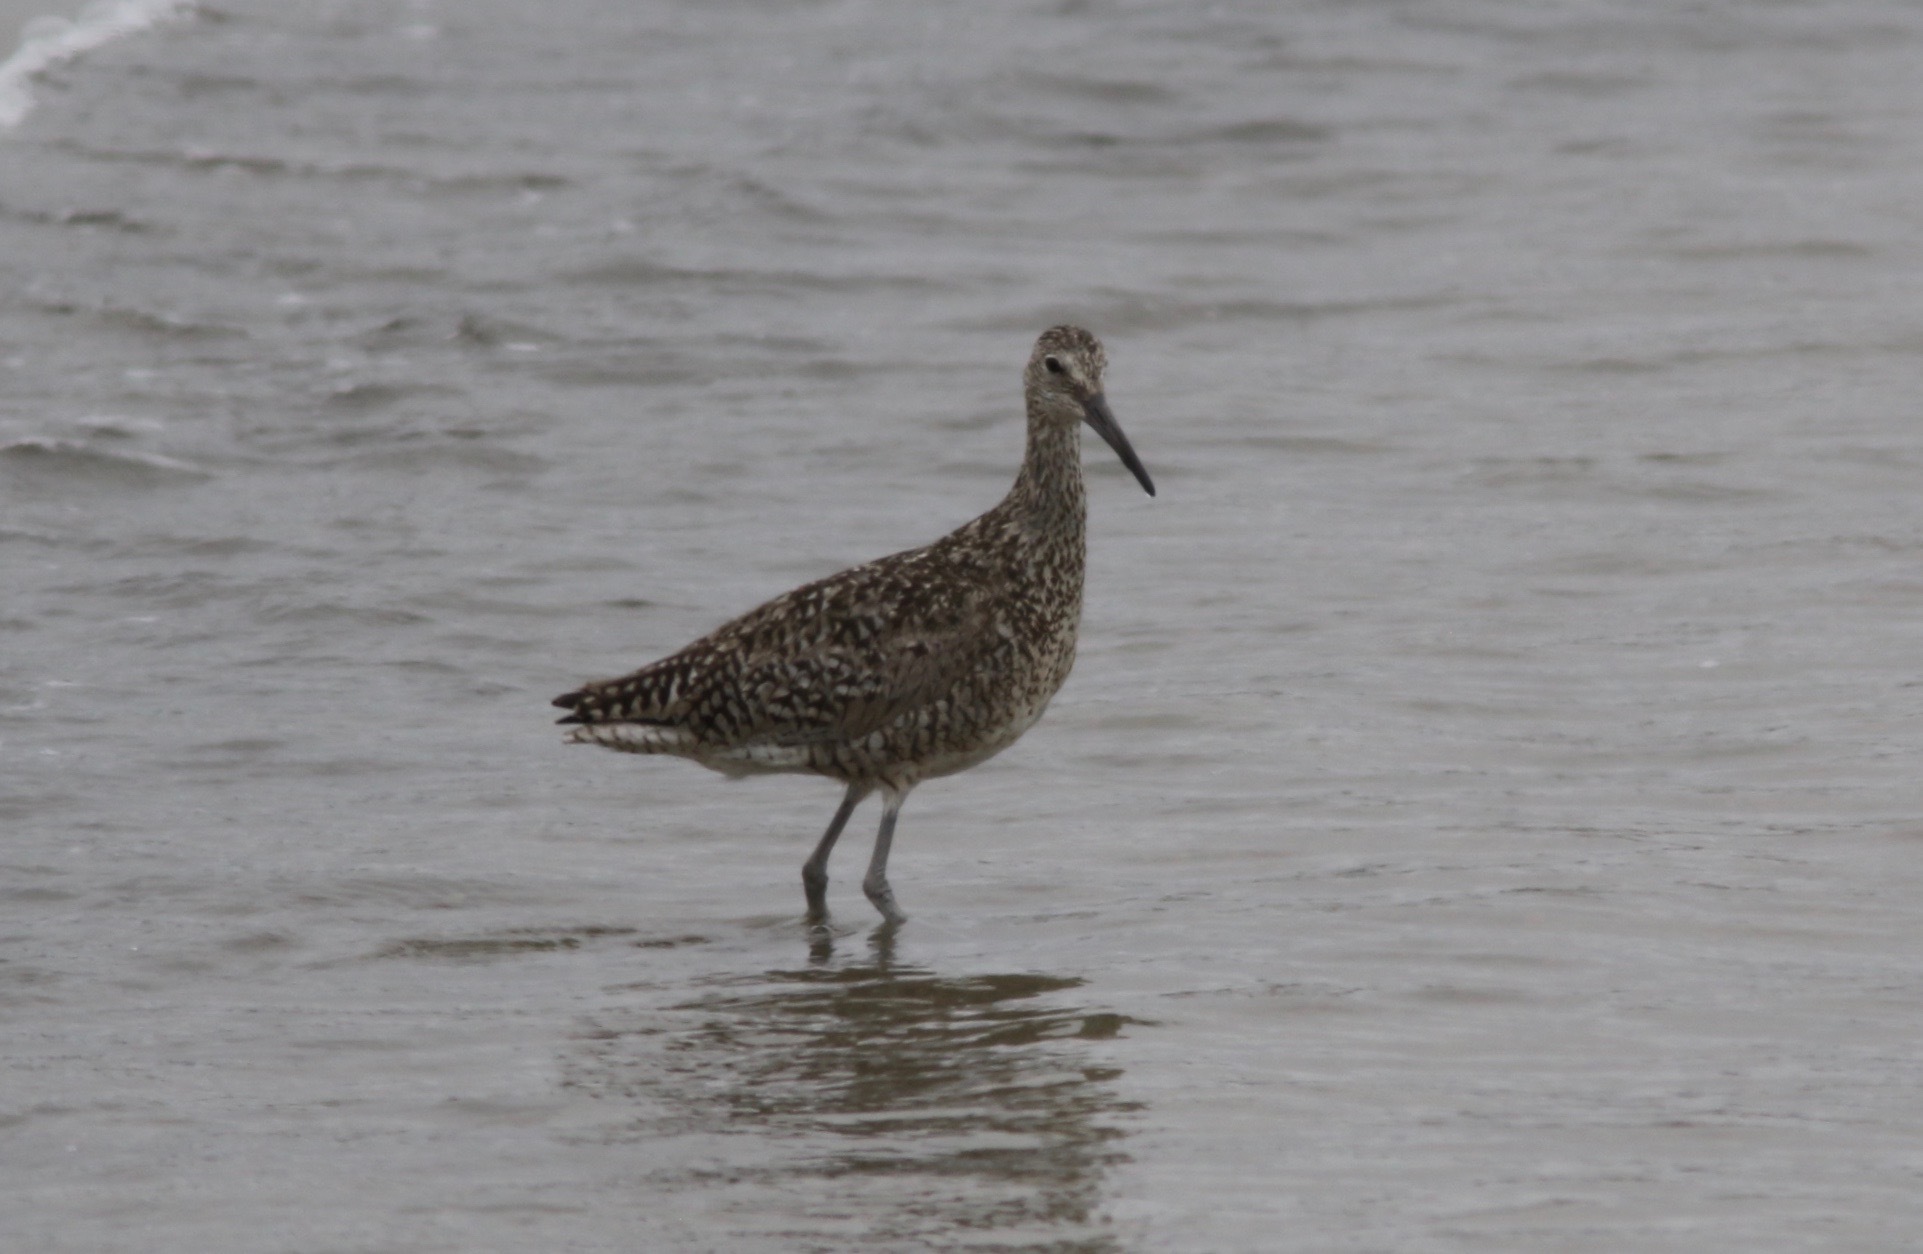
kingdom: Animalia
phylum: Chordata
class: Aves
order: Charadriiformes
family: Scolopacidae
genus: Tringa
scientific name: Tringa semipalmata
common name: Willet
